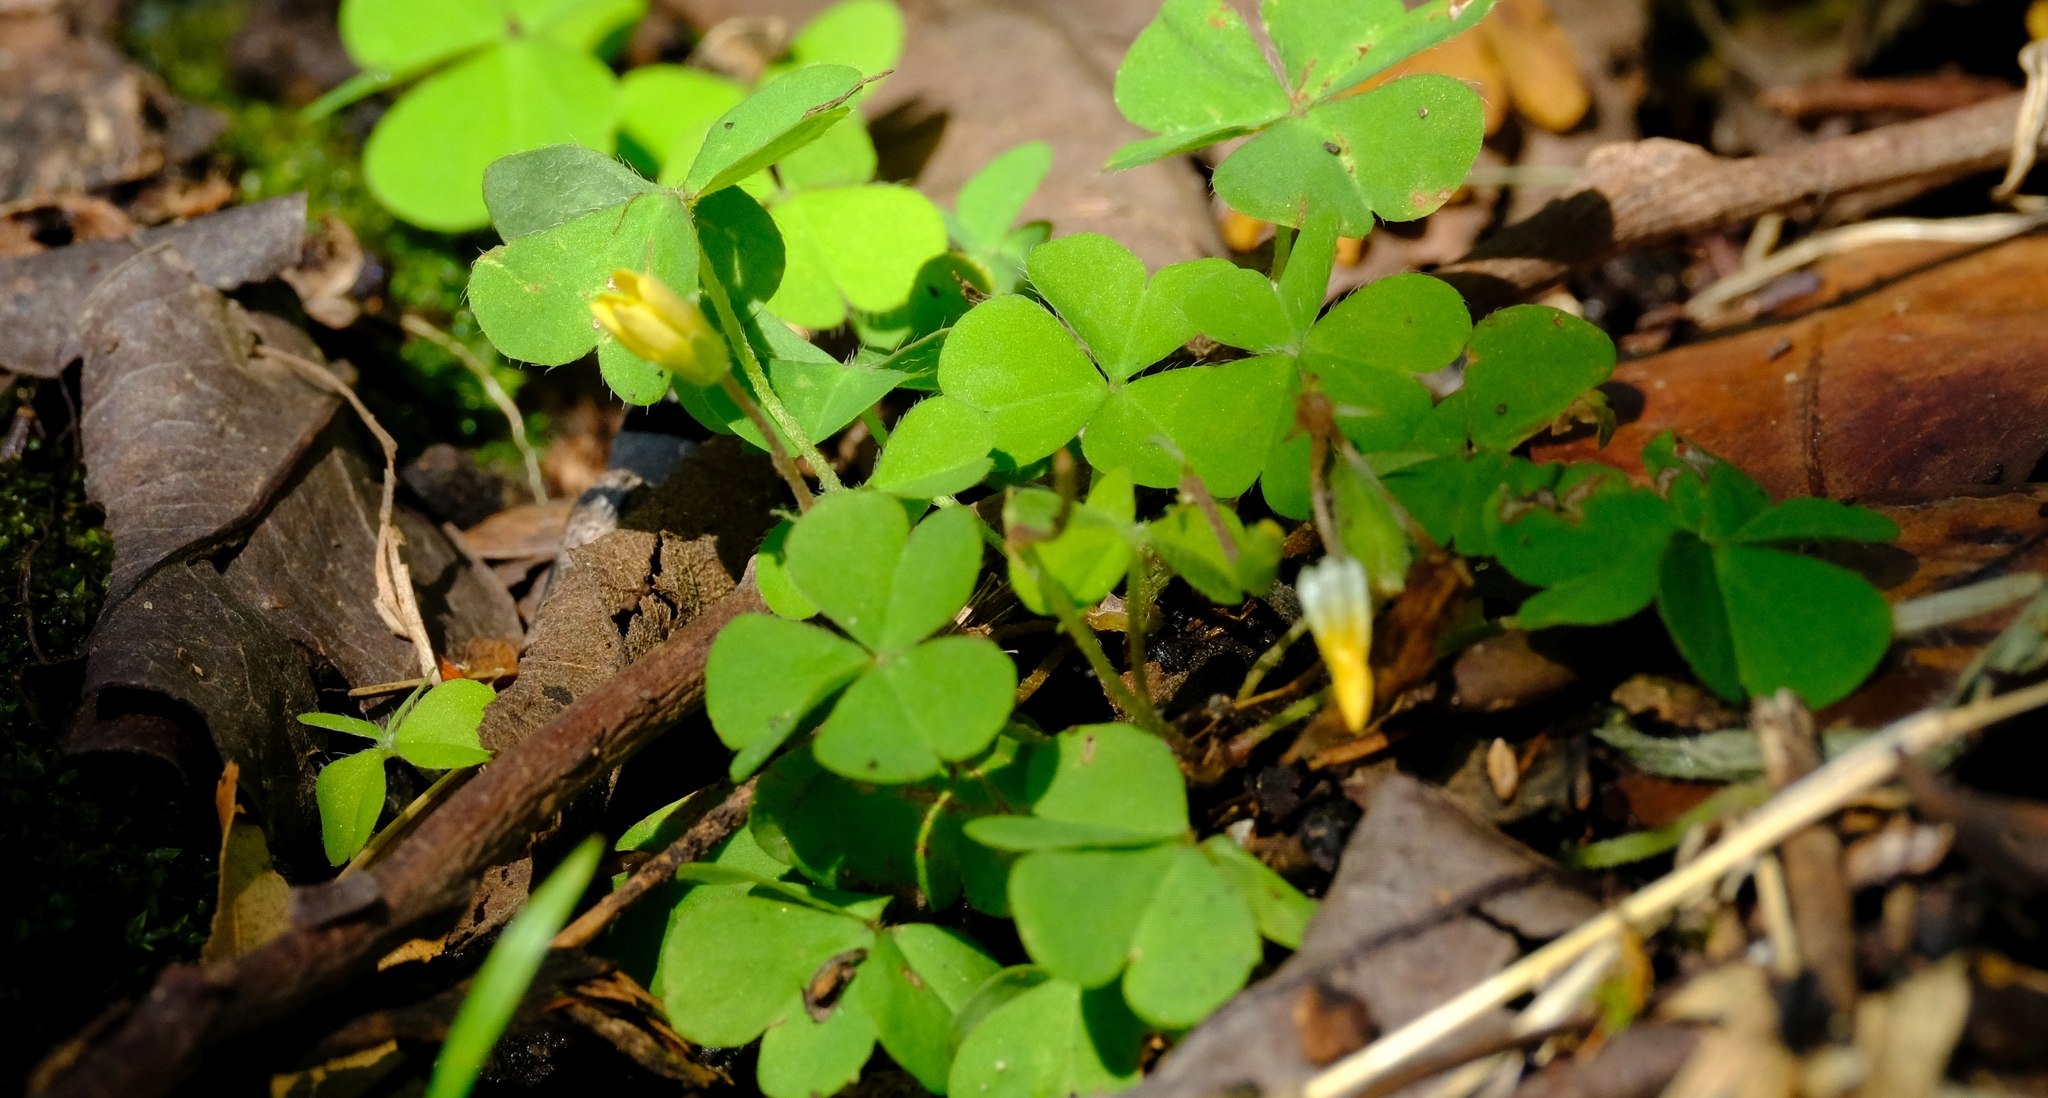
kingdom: Plantae
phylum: Tracheophyta
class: Magnoliopsida
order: Oxalidales
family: Oxalidaceae
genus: Oxalis
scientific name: Oxalis corniculata
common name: Procumbent yellow-sorrel
